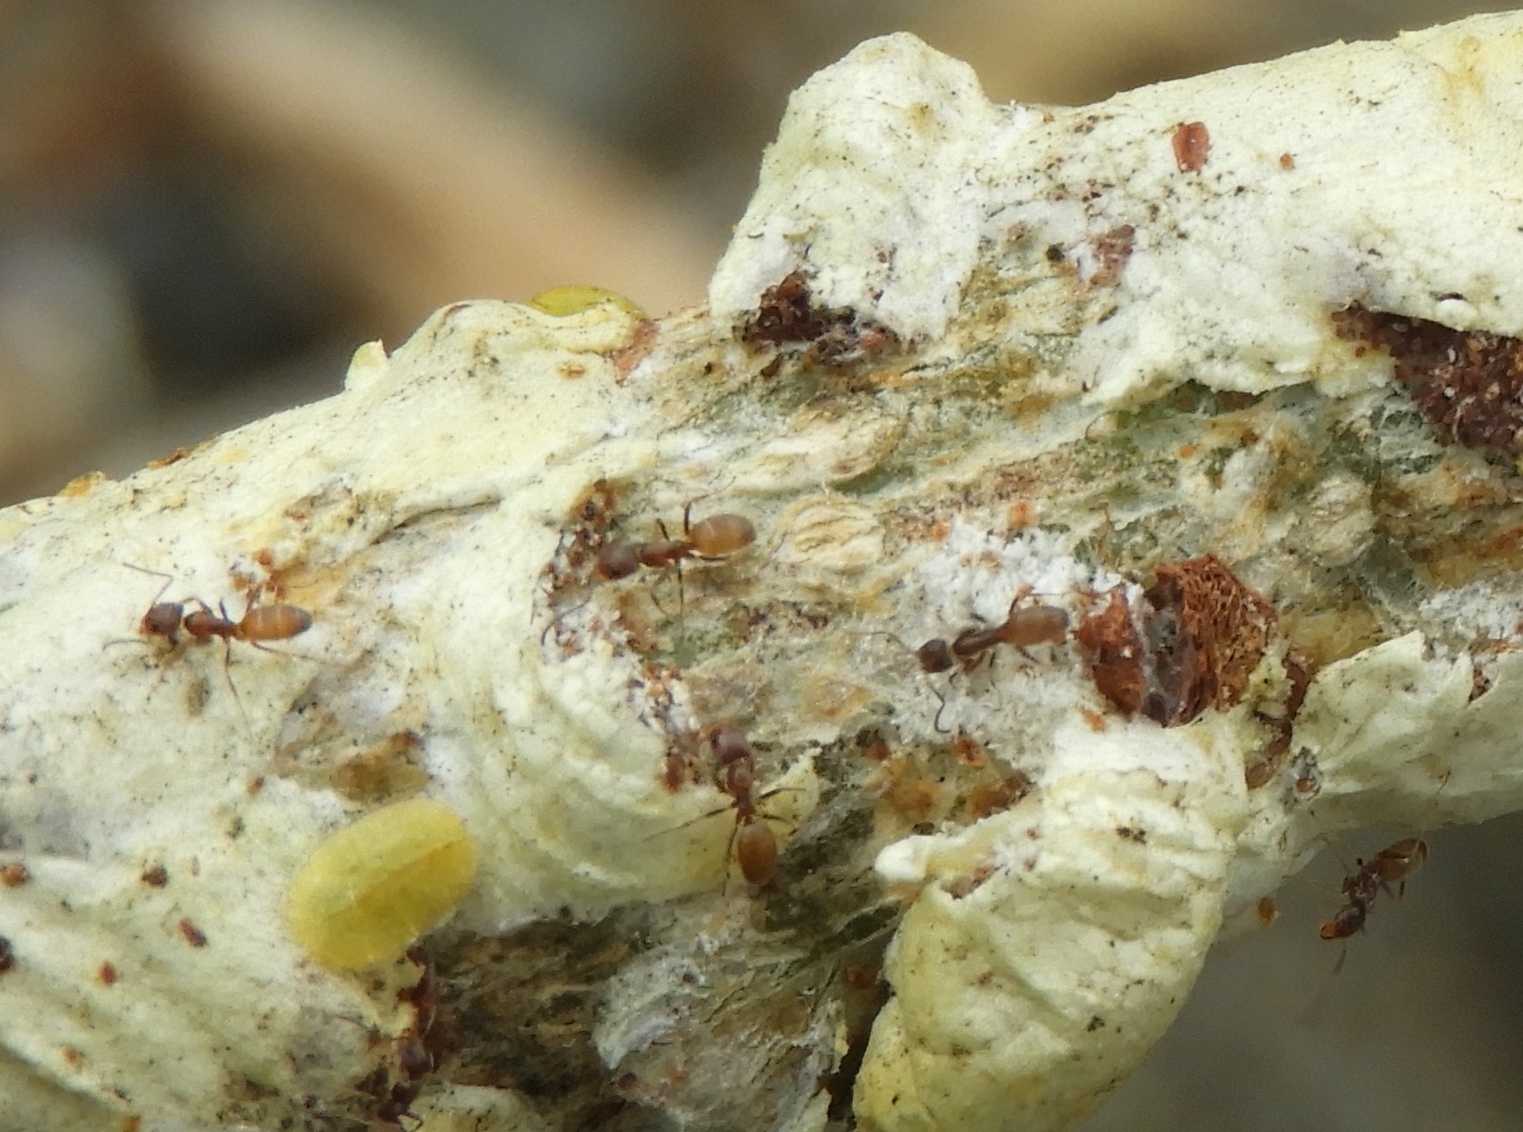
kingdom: Animalia
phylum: Arthropoda
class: Insecta
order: Hymenoptera
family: Formicidae
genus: Forelius
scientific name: Forelius
